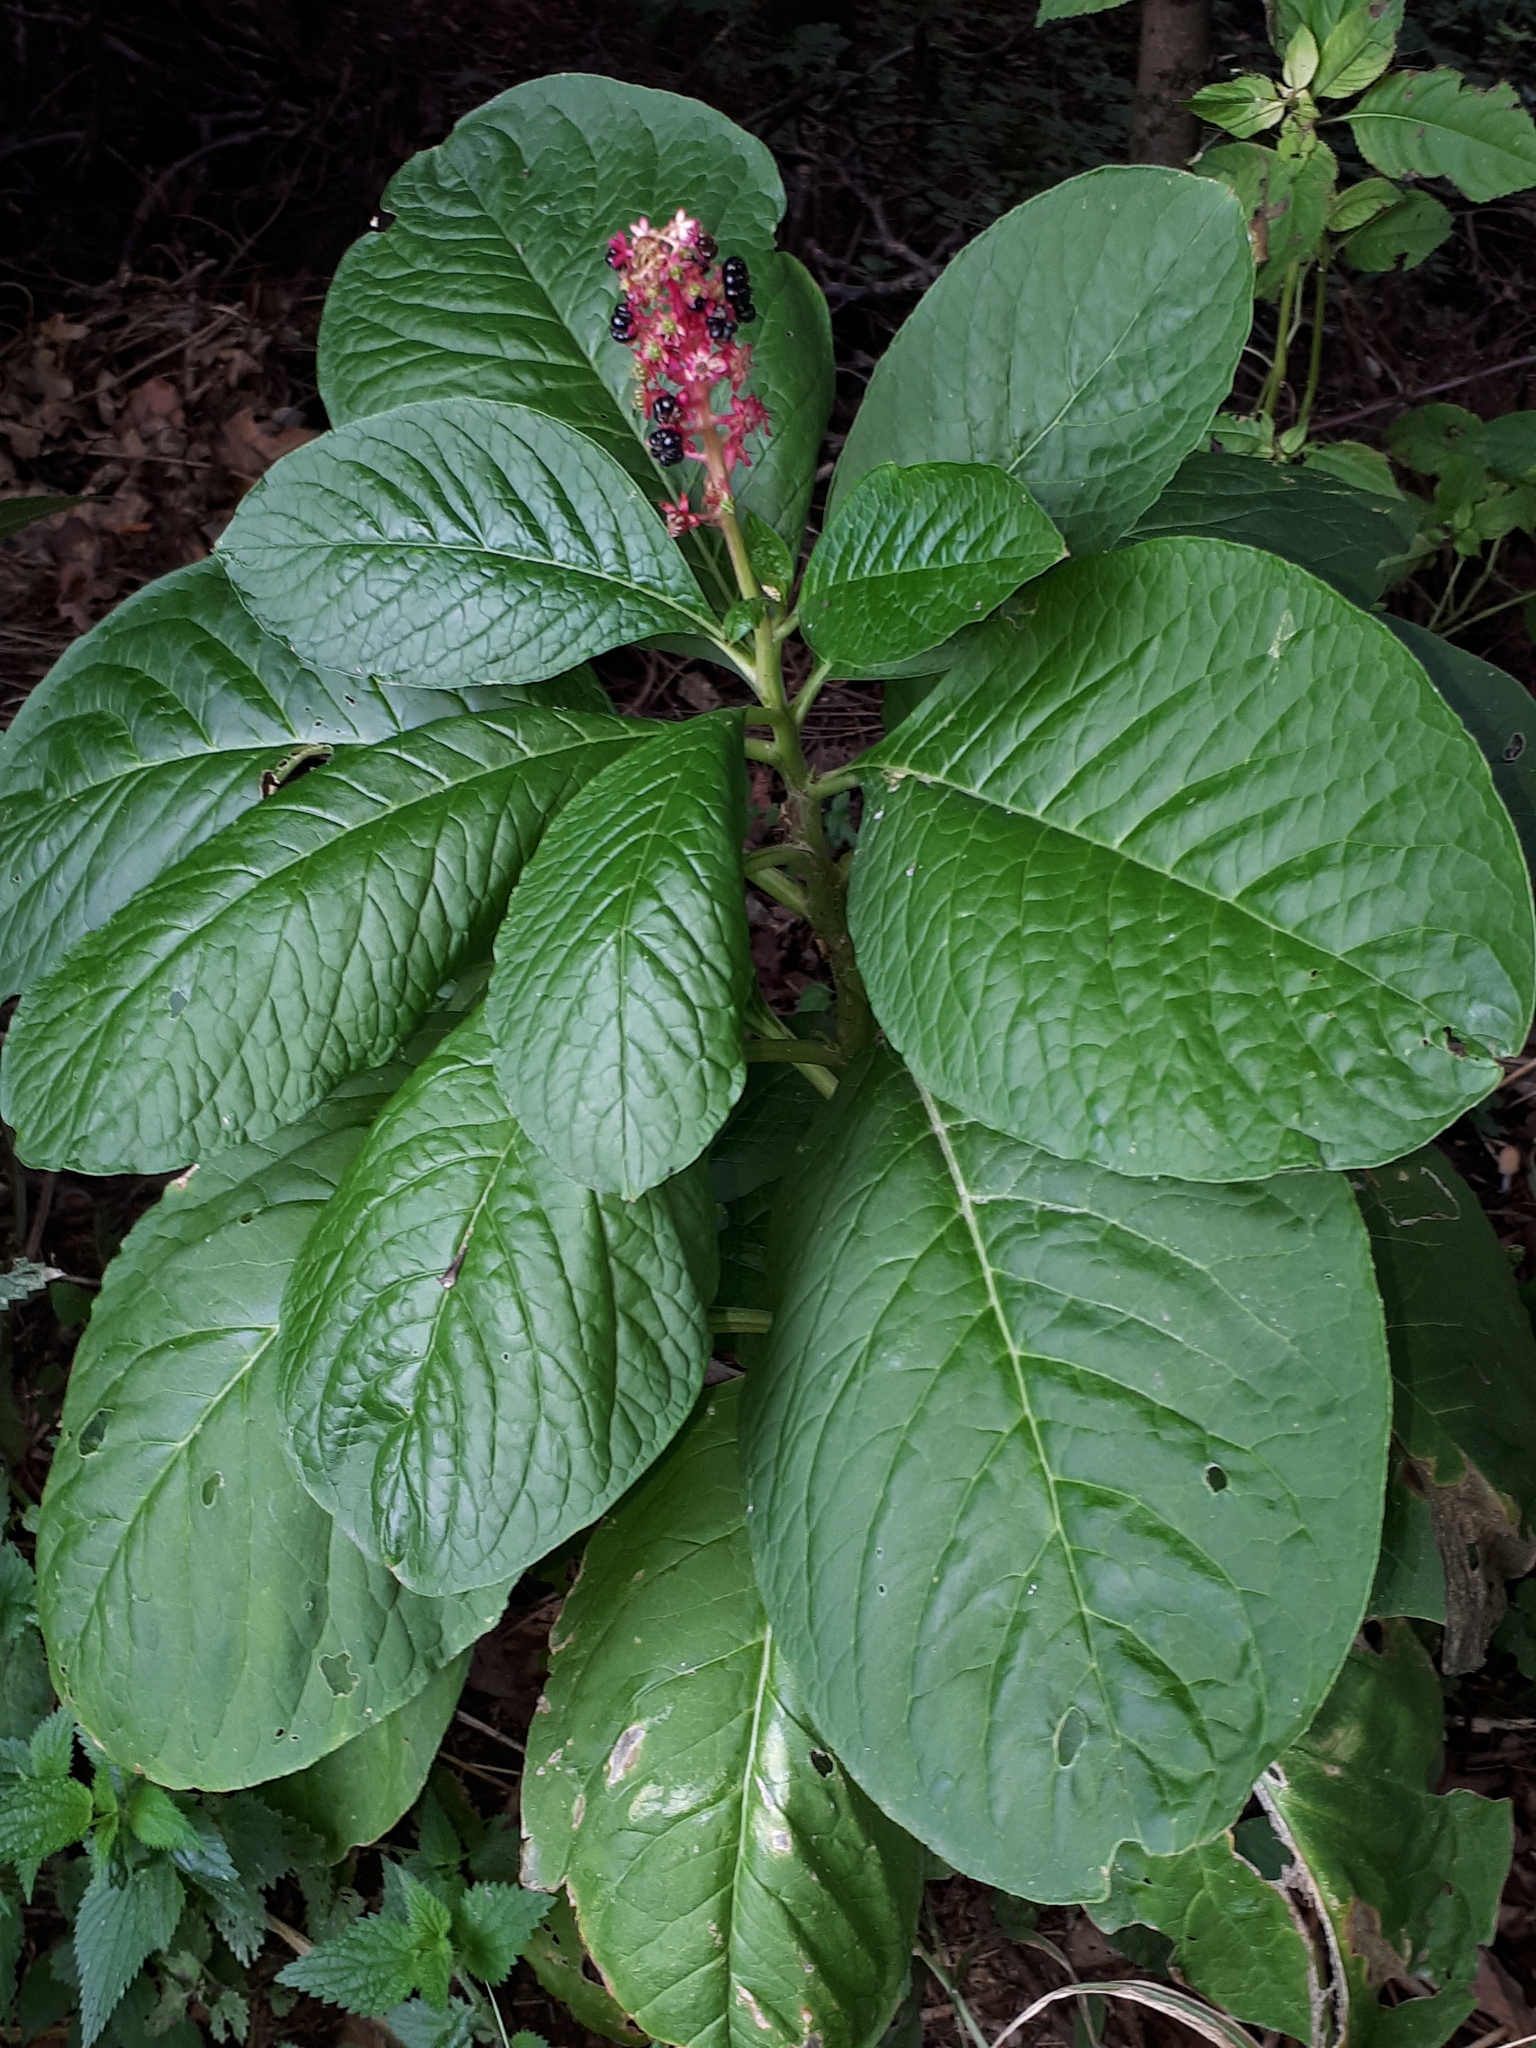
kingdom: Plantae
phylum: Tracheophyta
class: Magnoliopsida
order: Caryophyllales
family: Phytolaccaceae
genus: Phytolacca
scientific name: Phytolacca acinosa
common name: Indian pokeweed
